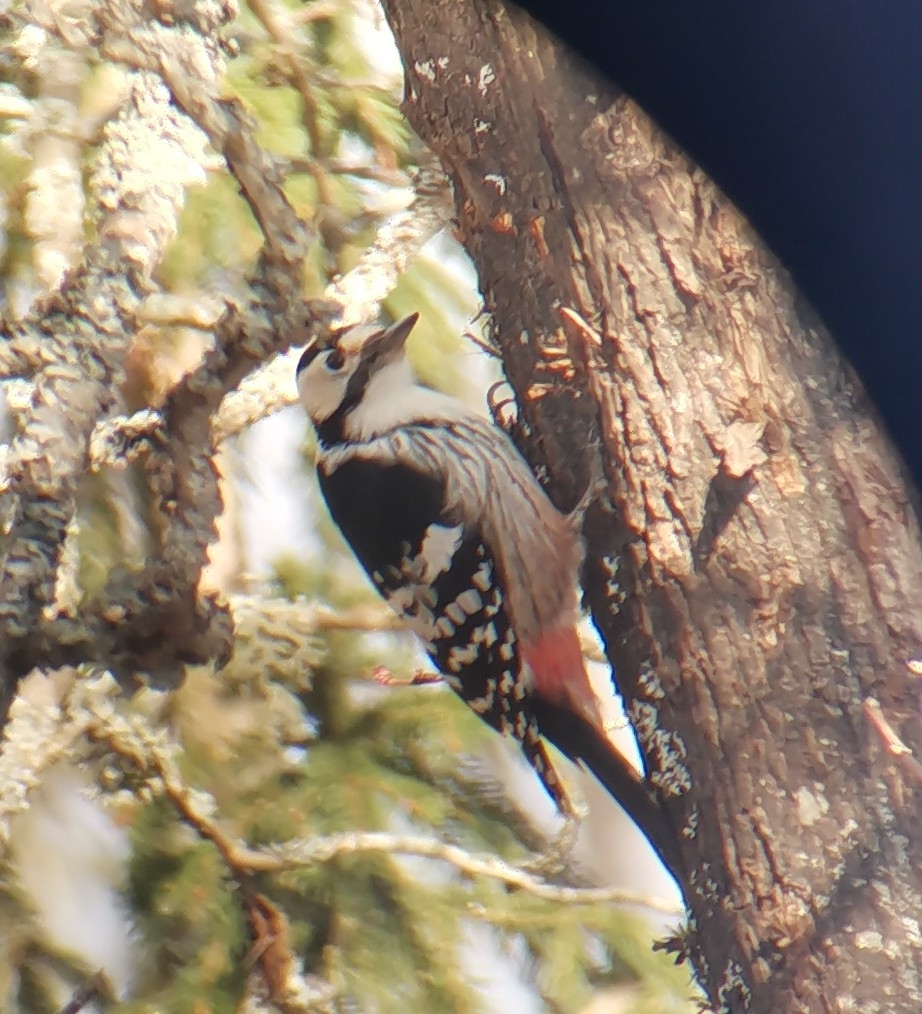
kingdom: Animalia
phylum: Chordata
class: Aves
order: Piciformes
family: Picidae
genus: Dendrocopos
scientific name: Dendrocopos leucotos
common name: White-backed woodpecker
